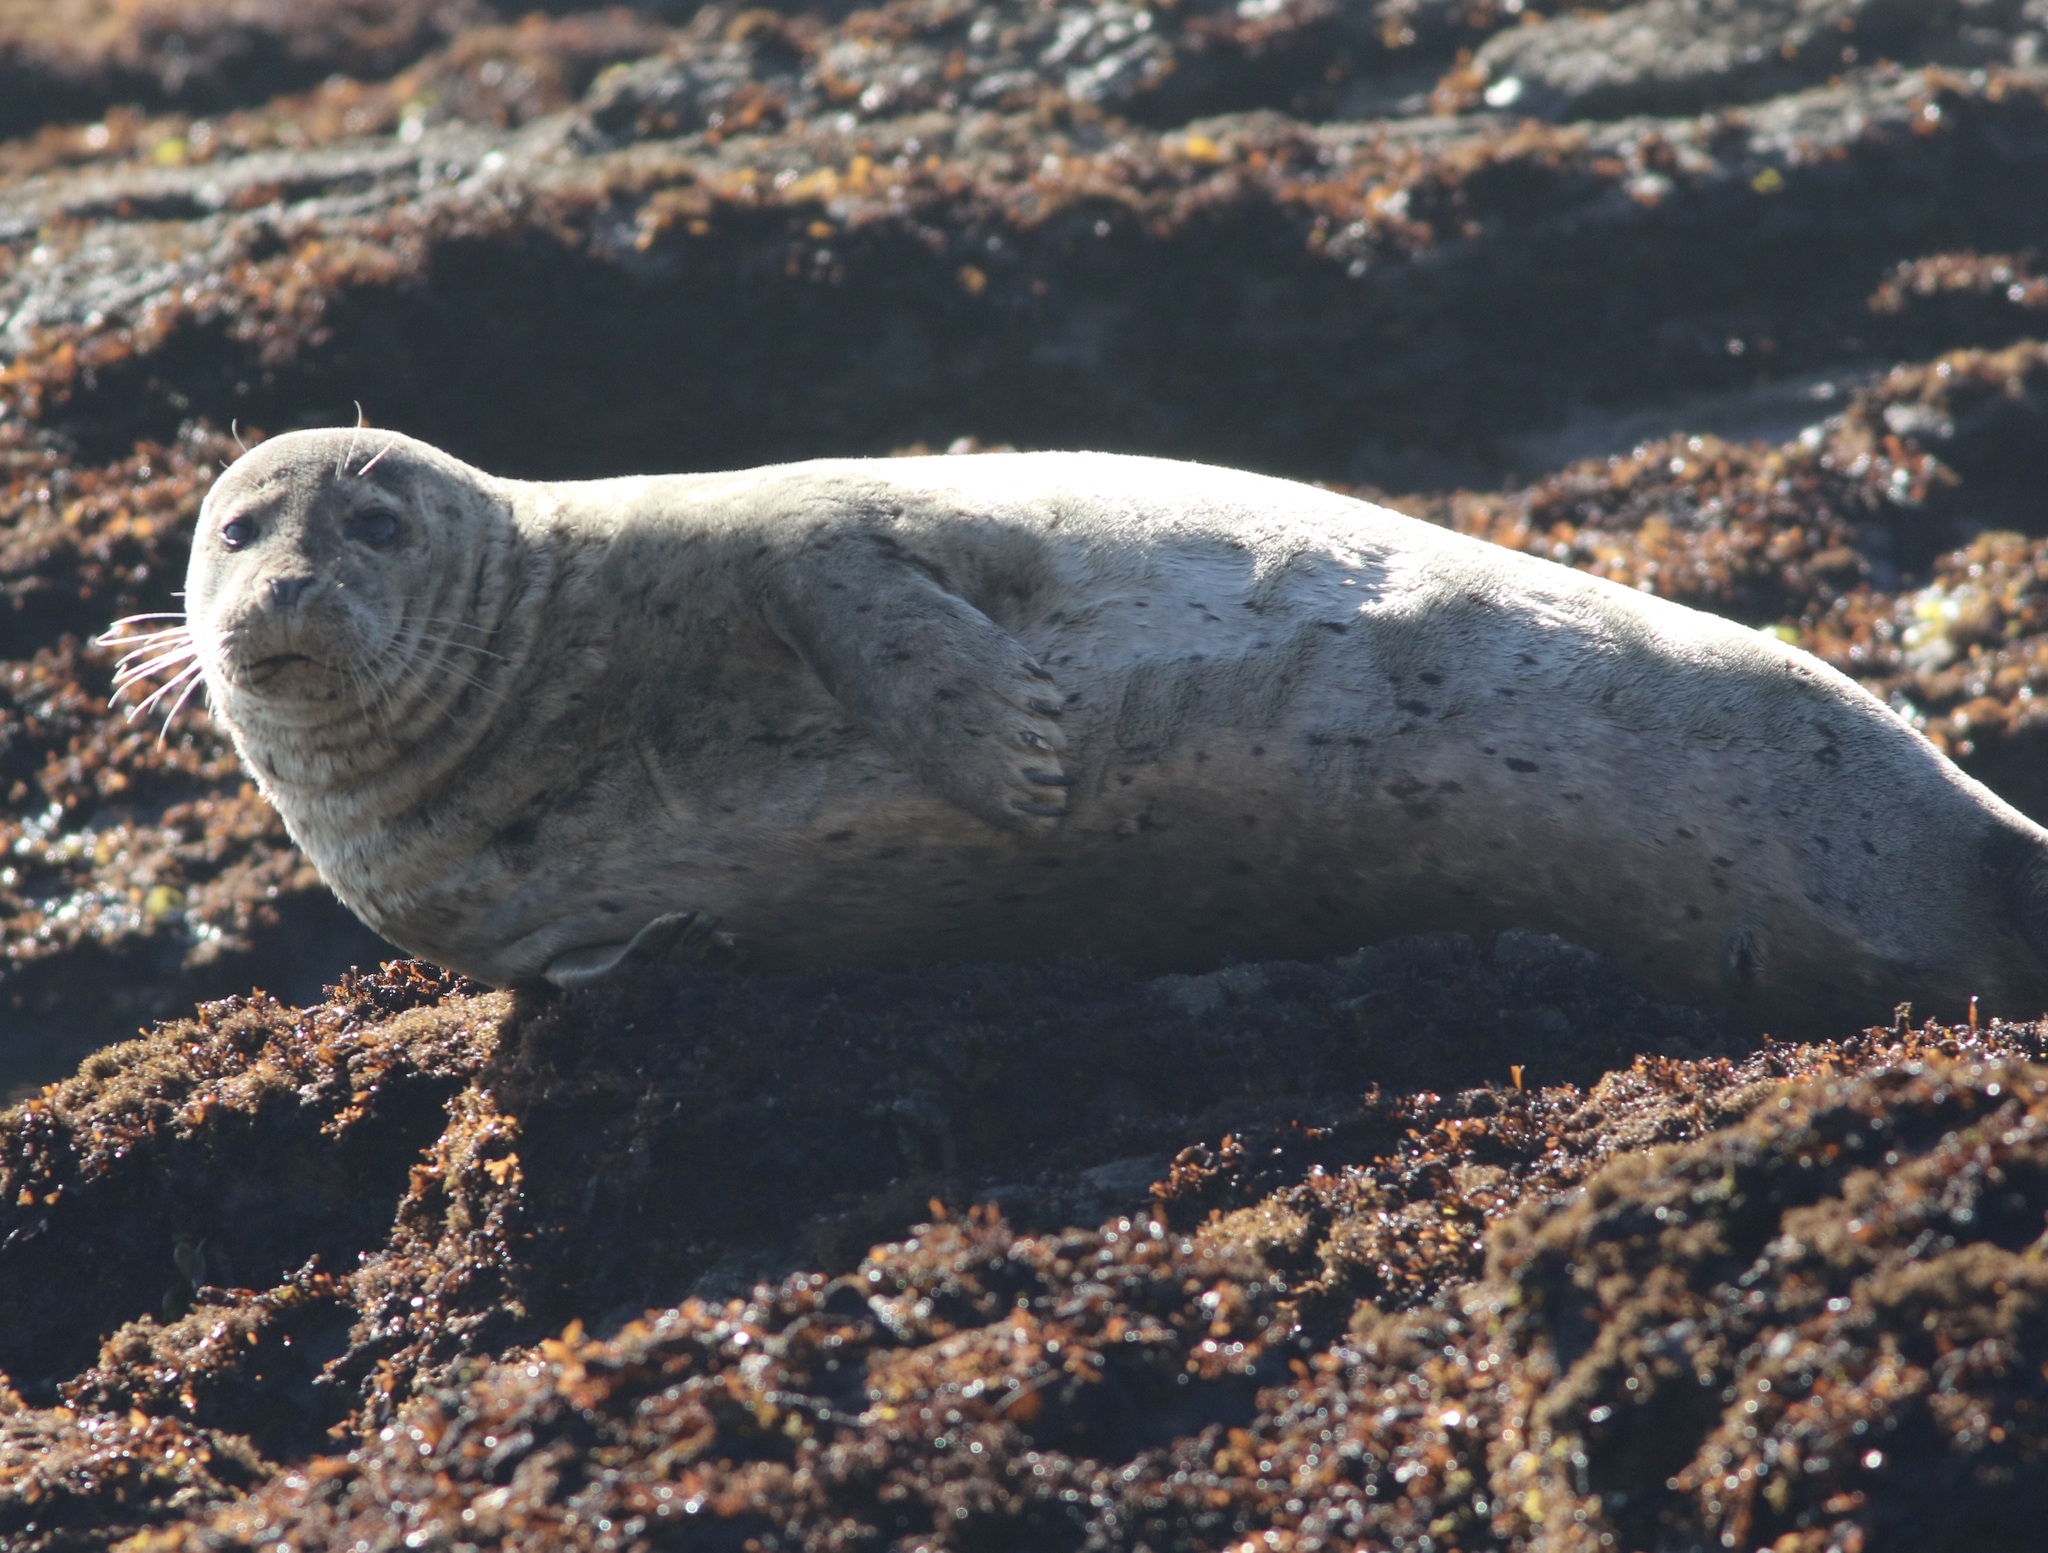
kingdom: Animalia
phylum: Chordata
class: Mammalia
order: Carnivora
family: Phocidae
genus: Phoca
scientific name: Phoca vitulina
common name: Harbor seal
